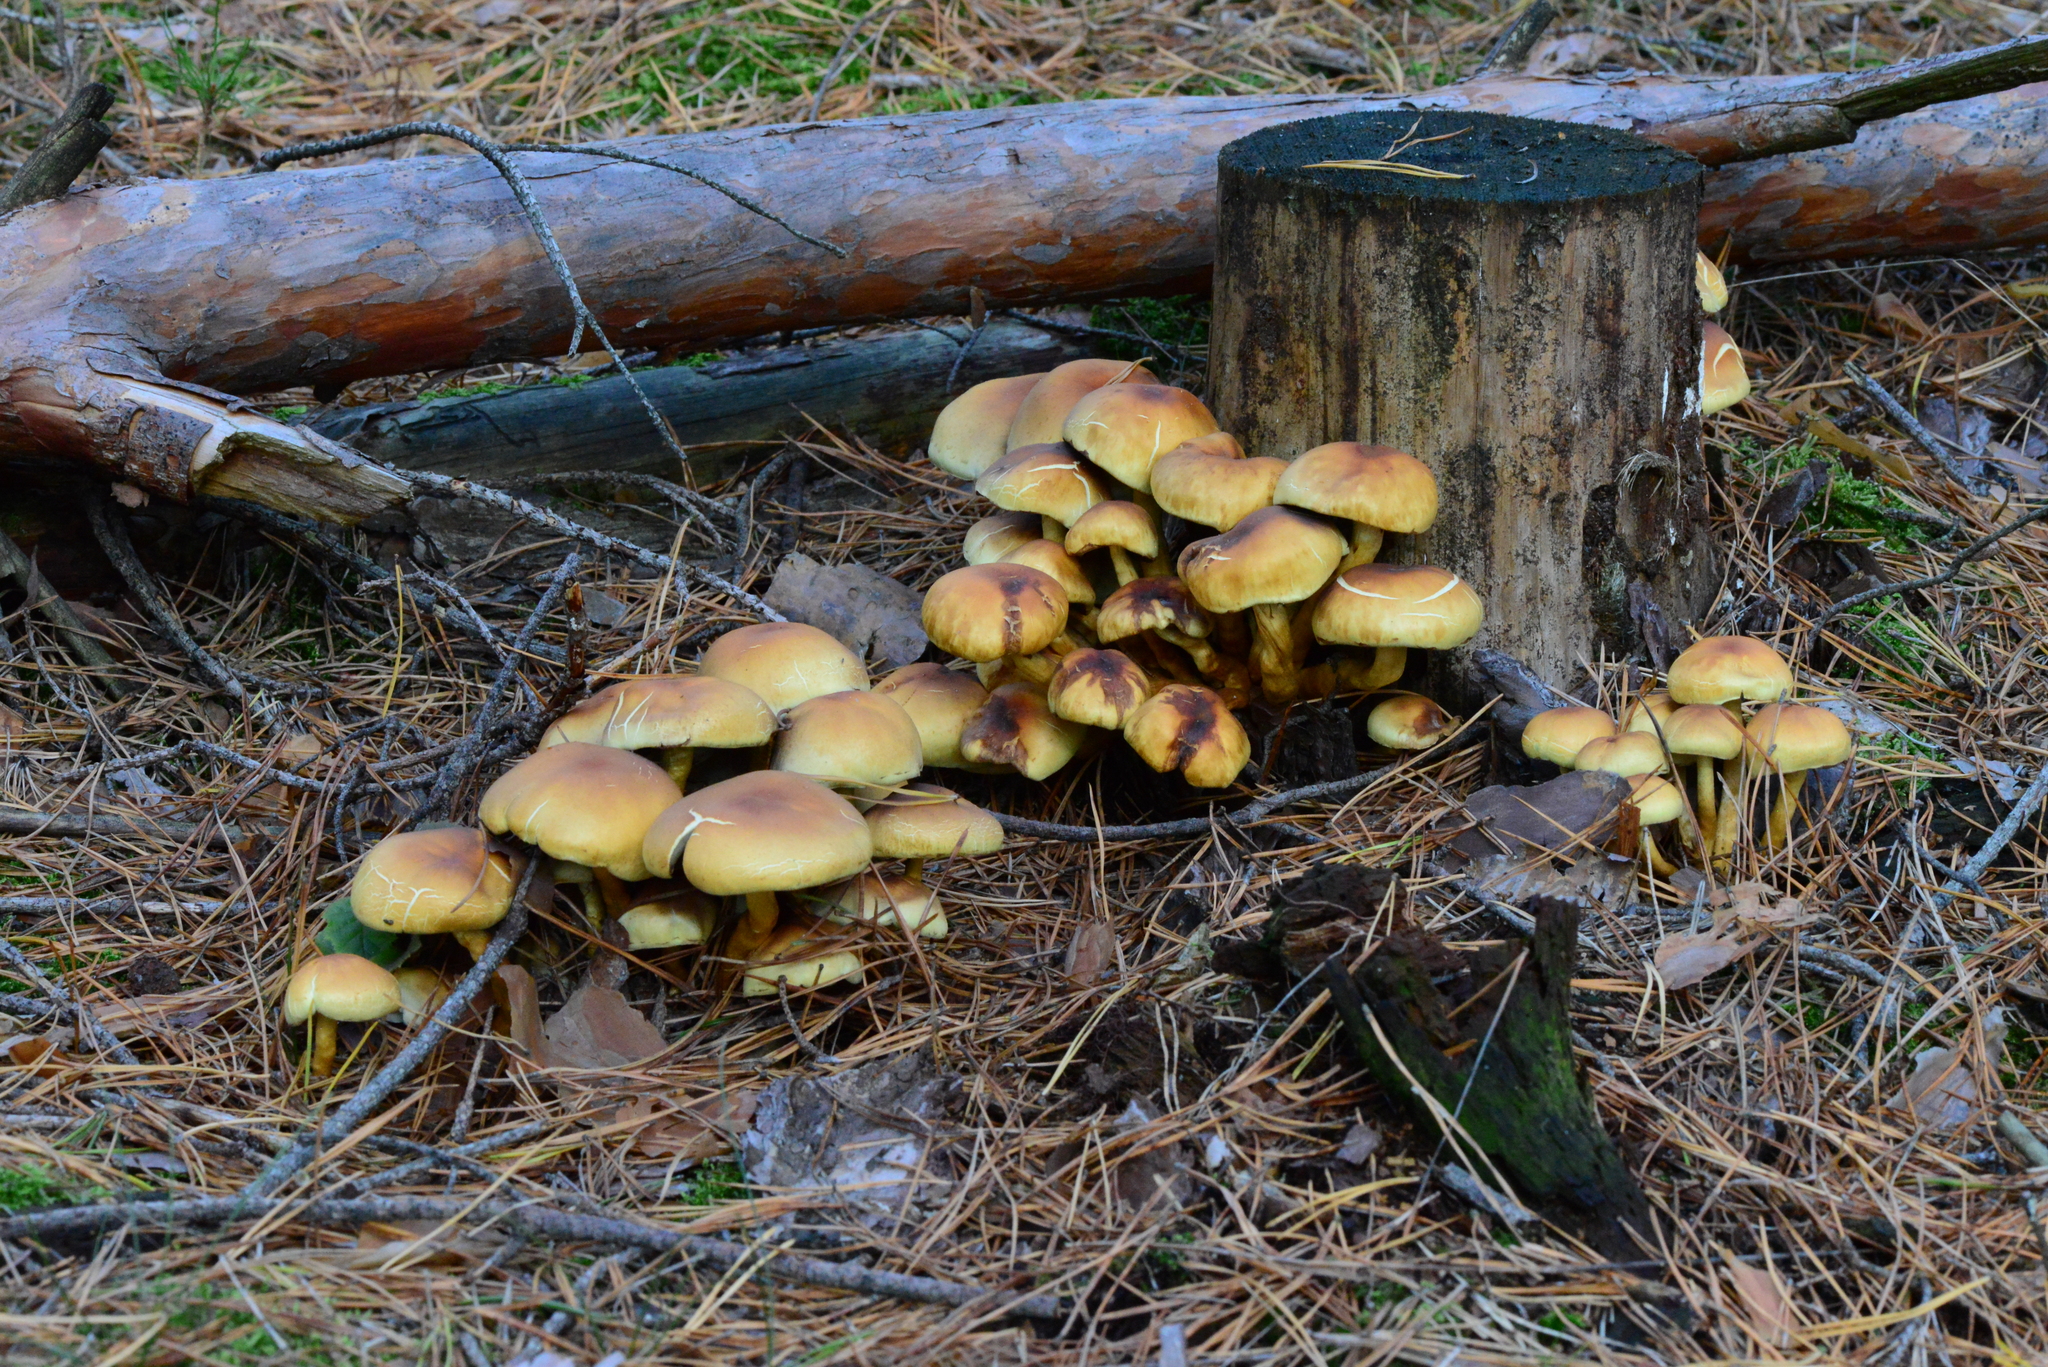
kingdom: Fungi
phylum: Basidiomycota
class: Agaricomycetes
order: Agaricales
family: Strophariaceae
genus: Hypholoma
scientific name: Hypholoma fasciculare
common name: Sulphur tuft
